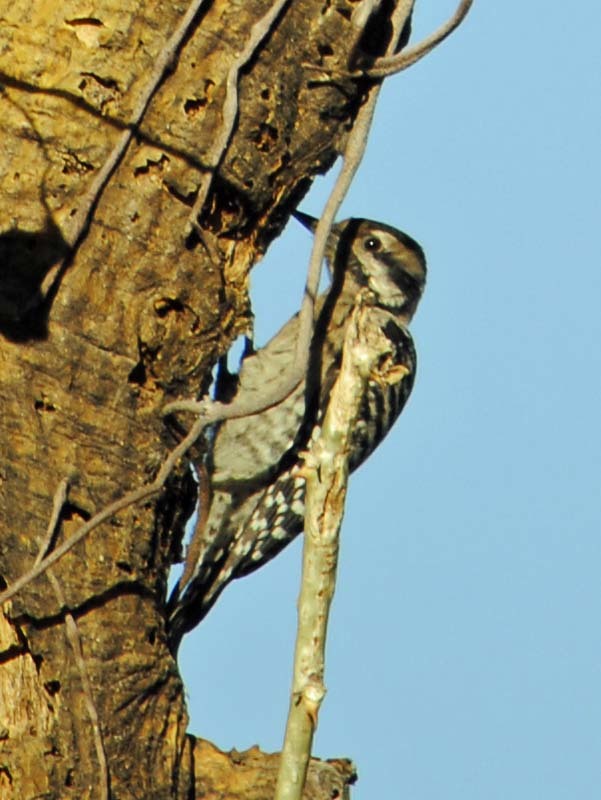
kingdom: Animalia
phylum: Chordata
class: Aves
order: Piciformes
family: Picidae
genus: Dryobates
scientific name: Dryobates scalaris
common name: Ladder-backed woodpecker
